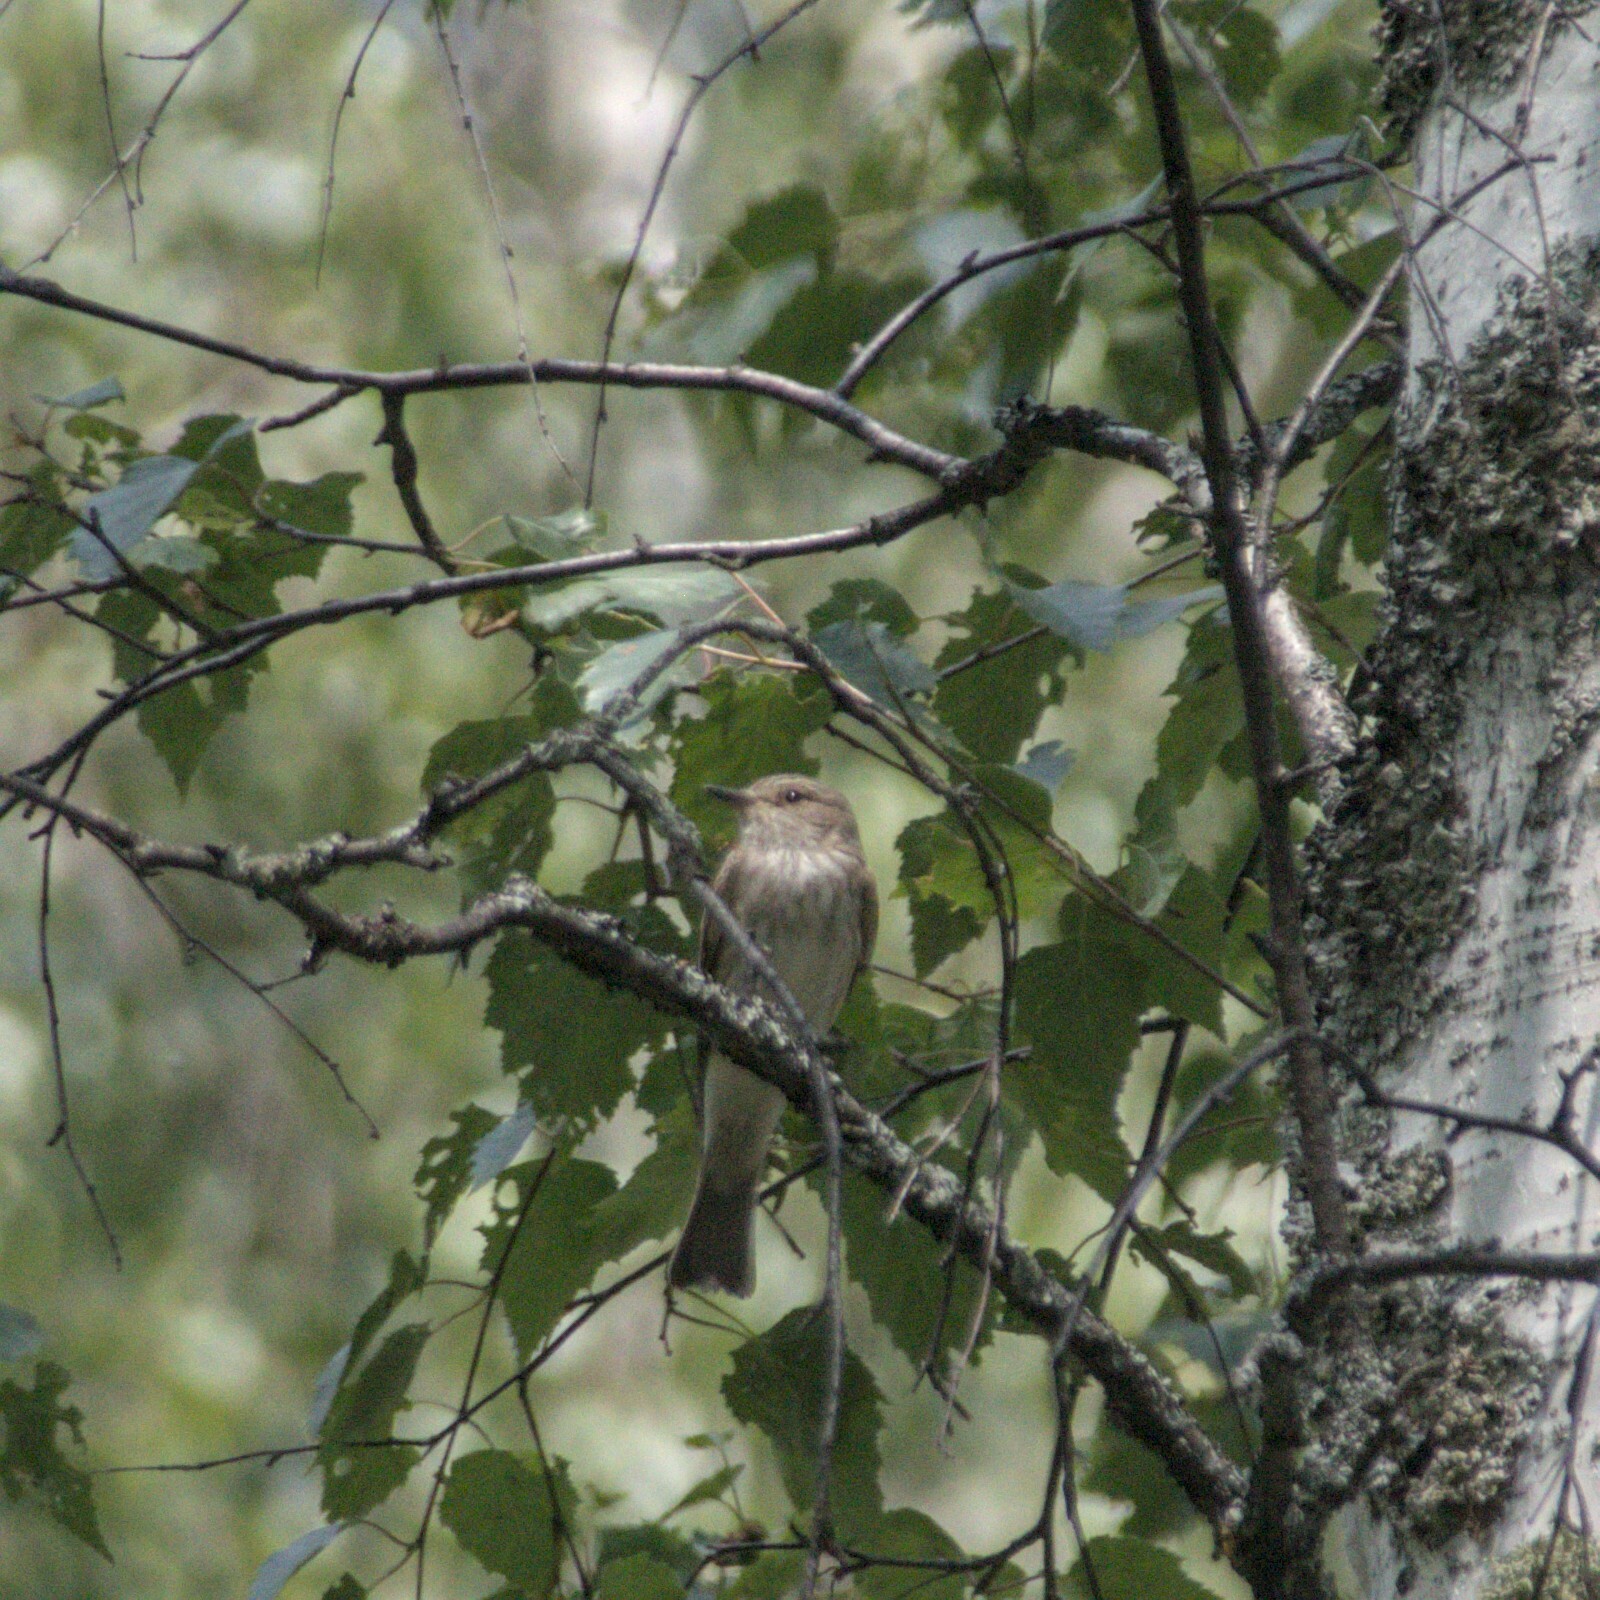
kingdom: Animalia
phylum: Chordata
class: Aves
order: Passeriformes
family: Muscicapidae
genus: Muscicapa
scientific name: Muscicapa striata
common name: Spotted flycatcher
